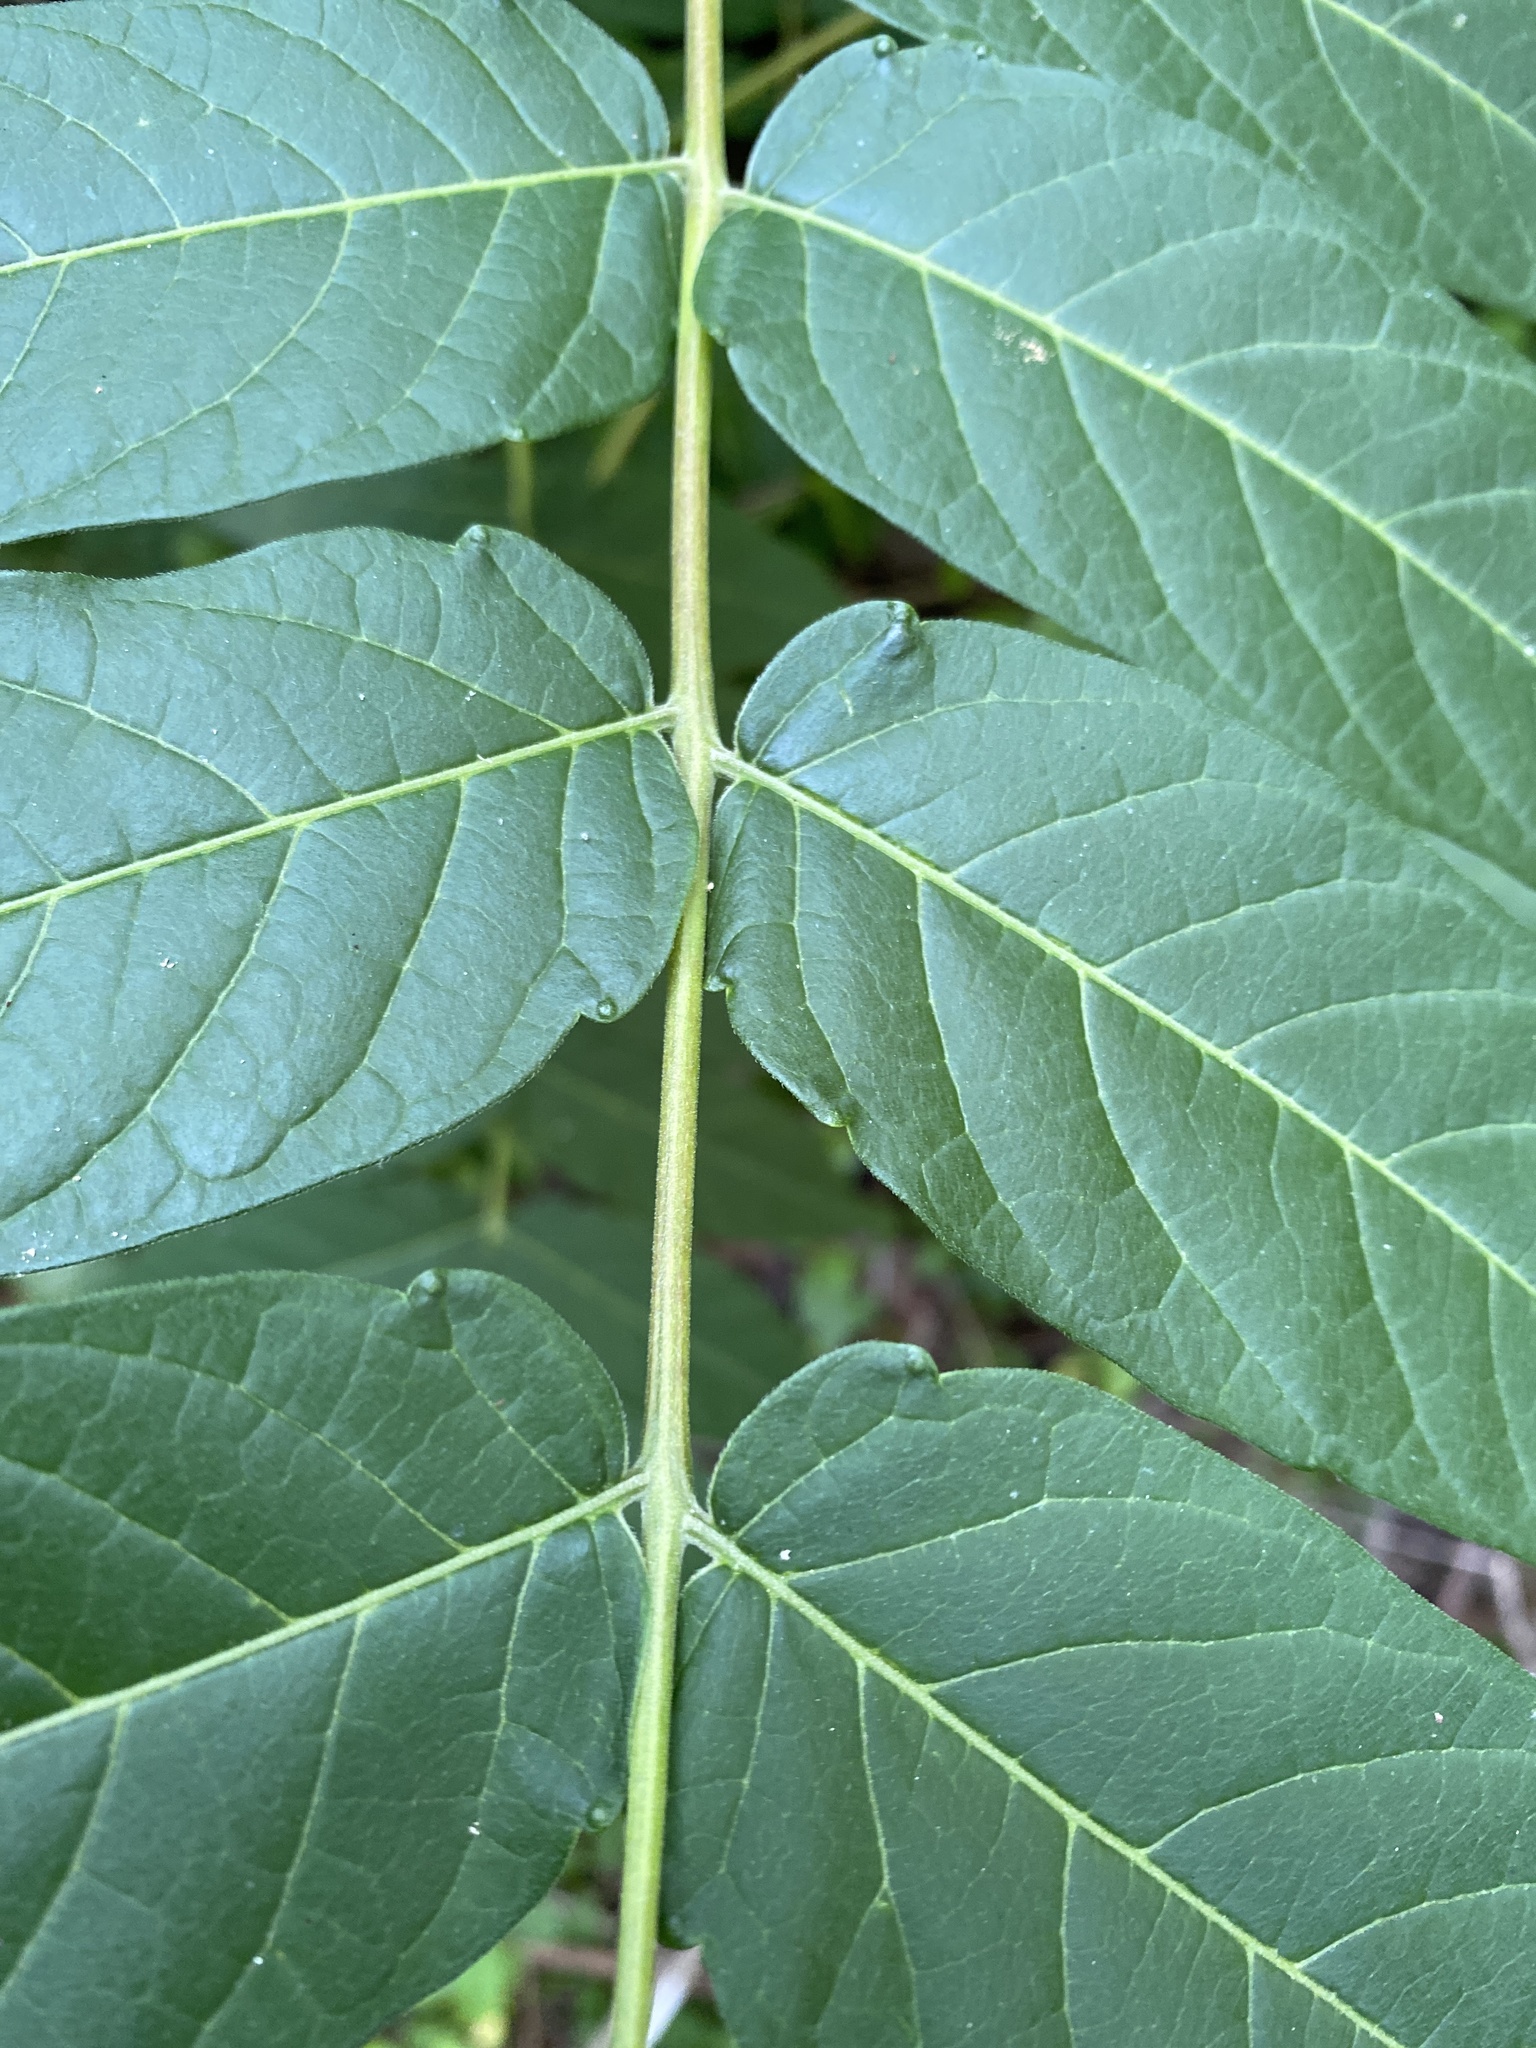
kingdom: Plantae
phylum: Tracheophyta
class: Magnoliopsida
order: Sapindales
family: Simaroubaceae
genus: Ailanthus
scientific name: Ailanthus altissima
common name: Tree-of-heaven
